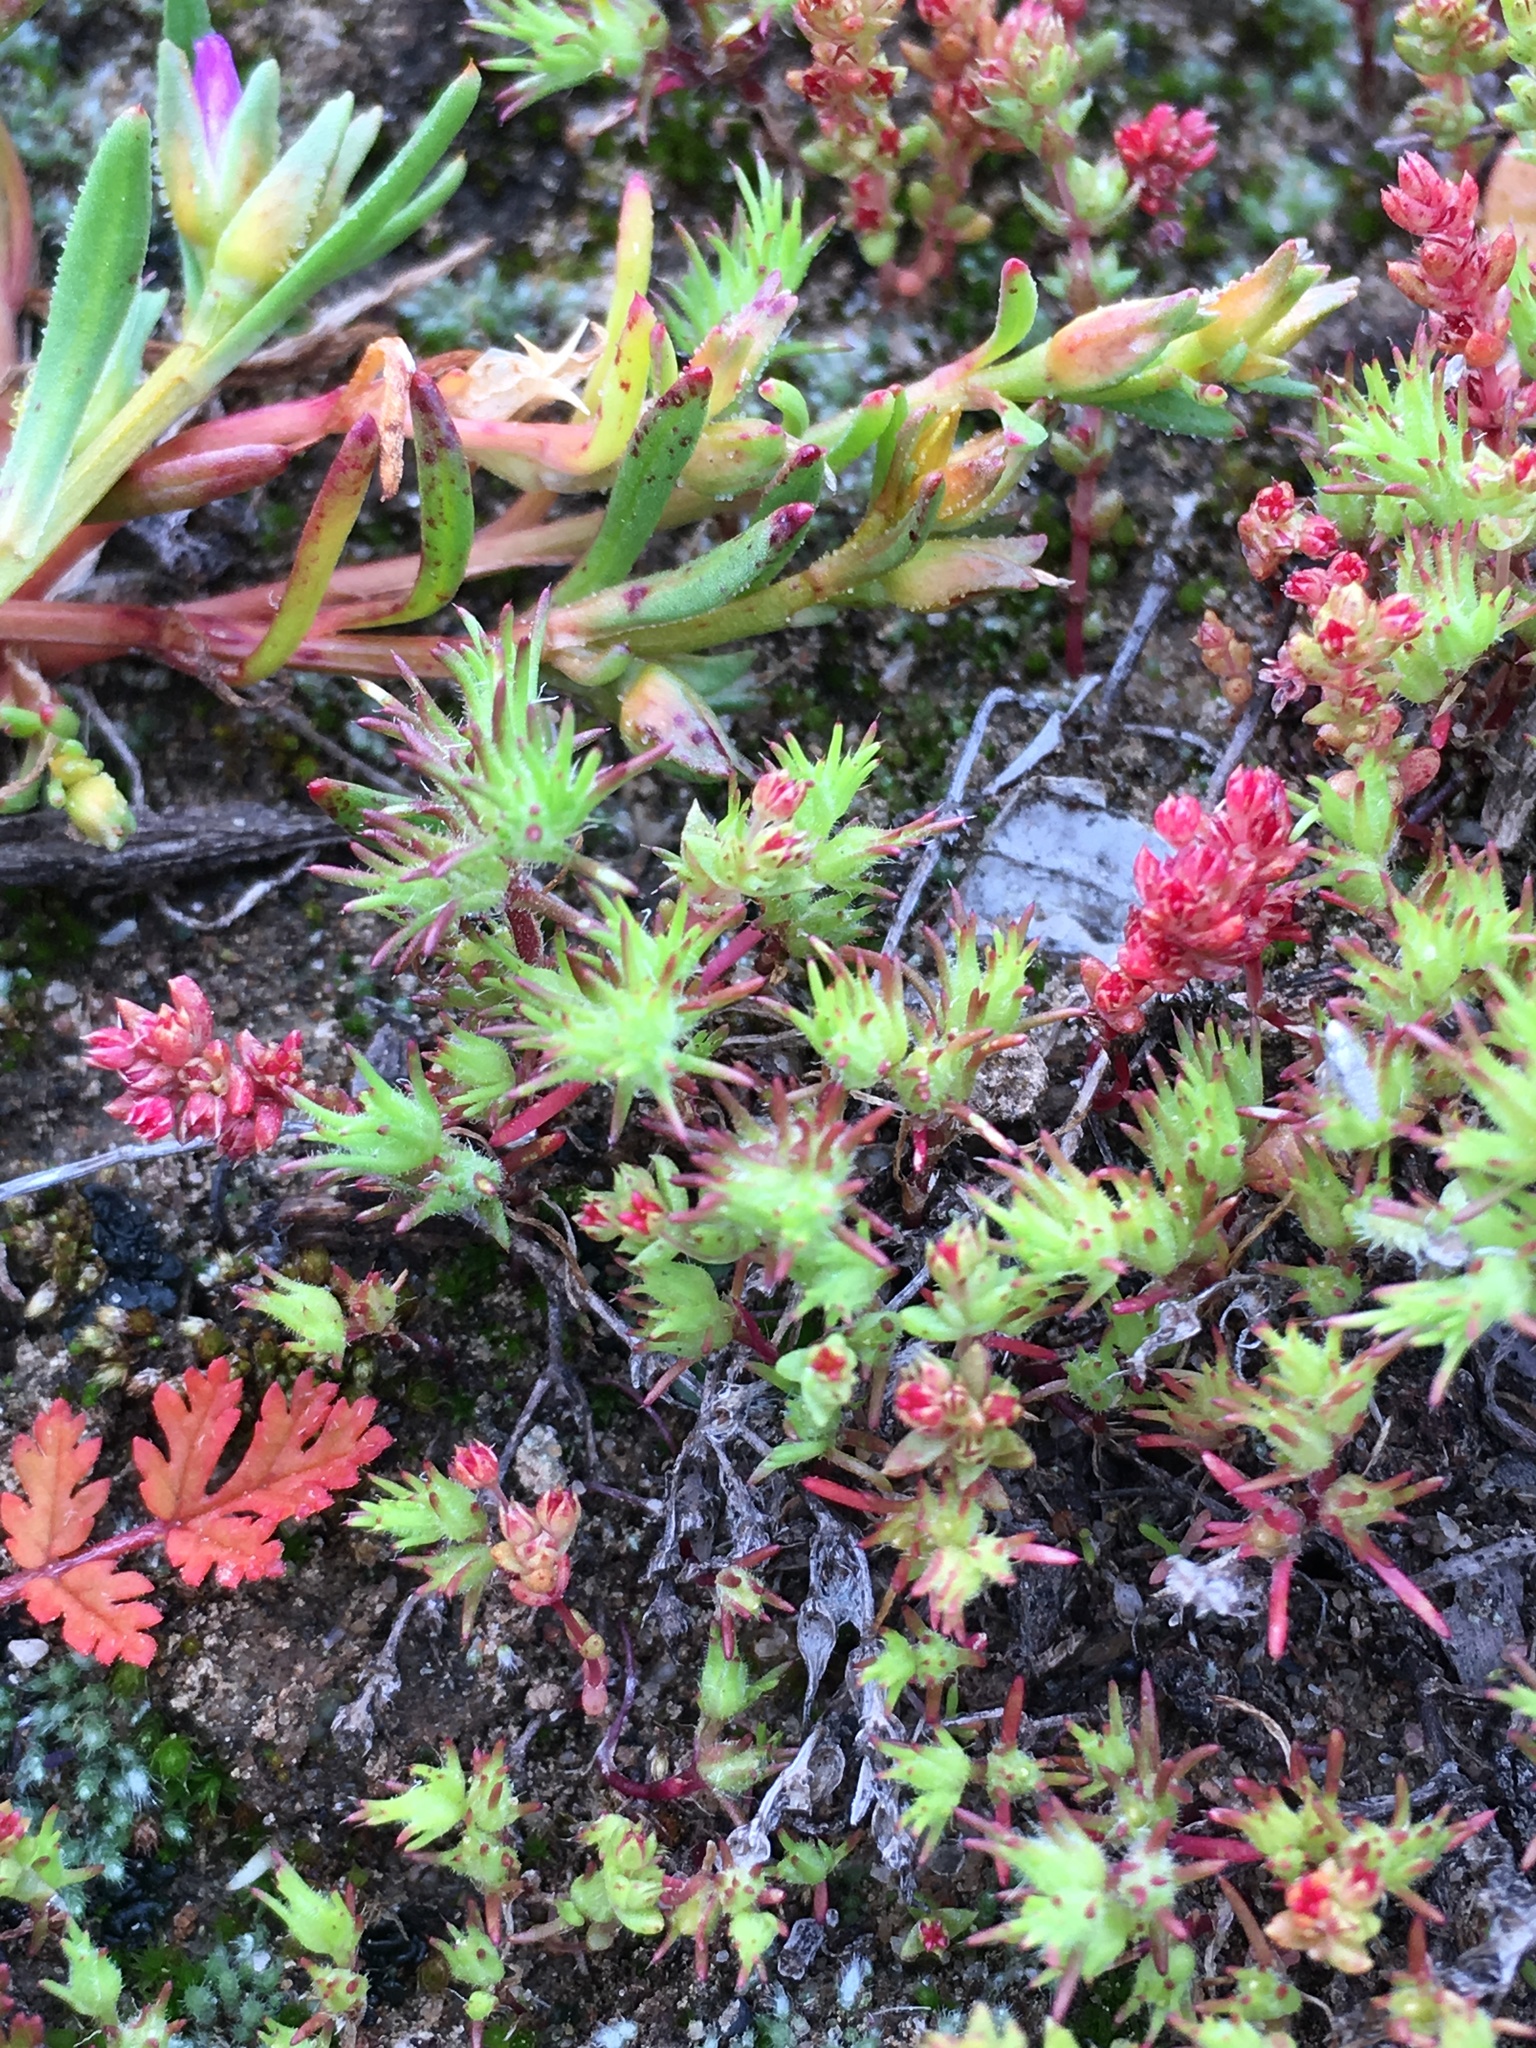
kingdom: Plantae
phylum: Tracheophyta
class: Magnoliopsida
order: Caryophyllales
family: Caryophyllaceae
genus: Loeflingia
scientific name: Loeflingia squarrosa
